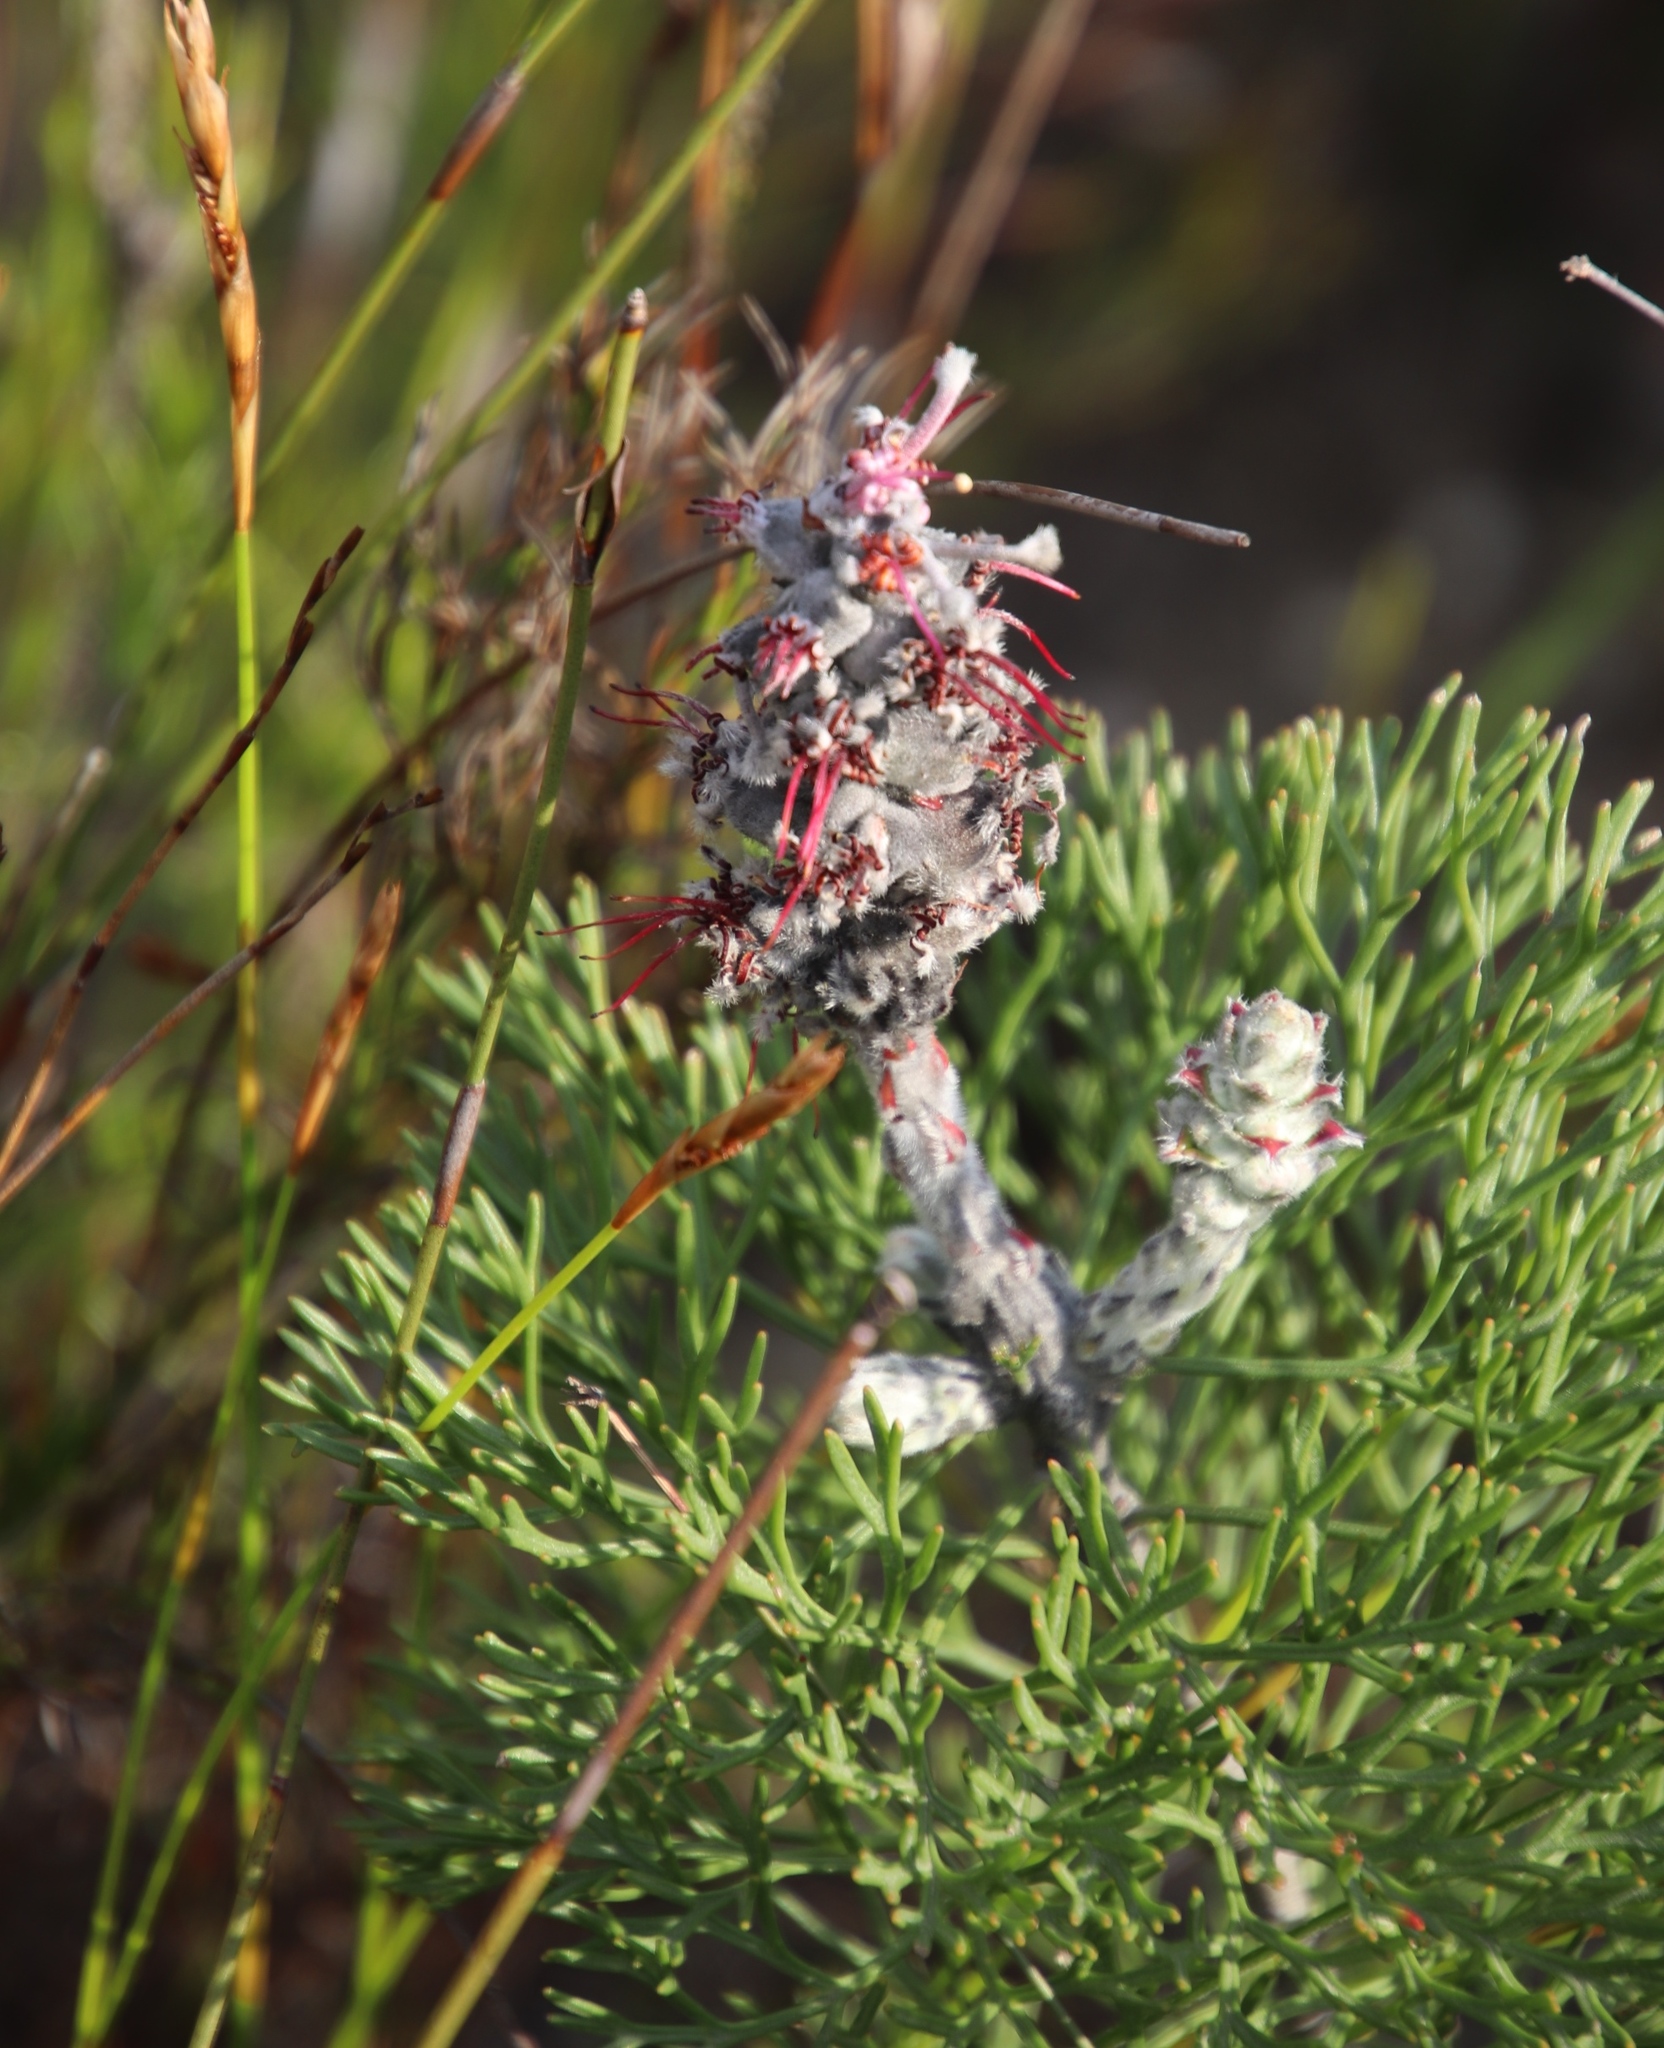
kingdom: Plantae
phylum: Tracheophyta
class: Magnoliopsida
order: Proteales
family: Proteaceae
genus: Paranomus
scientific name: Paranomus bolusii
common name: Overberg sceptre
